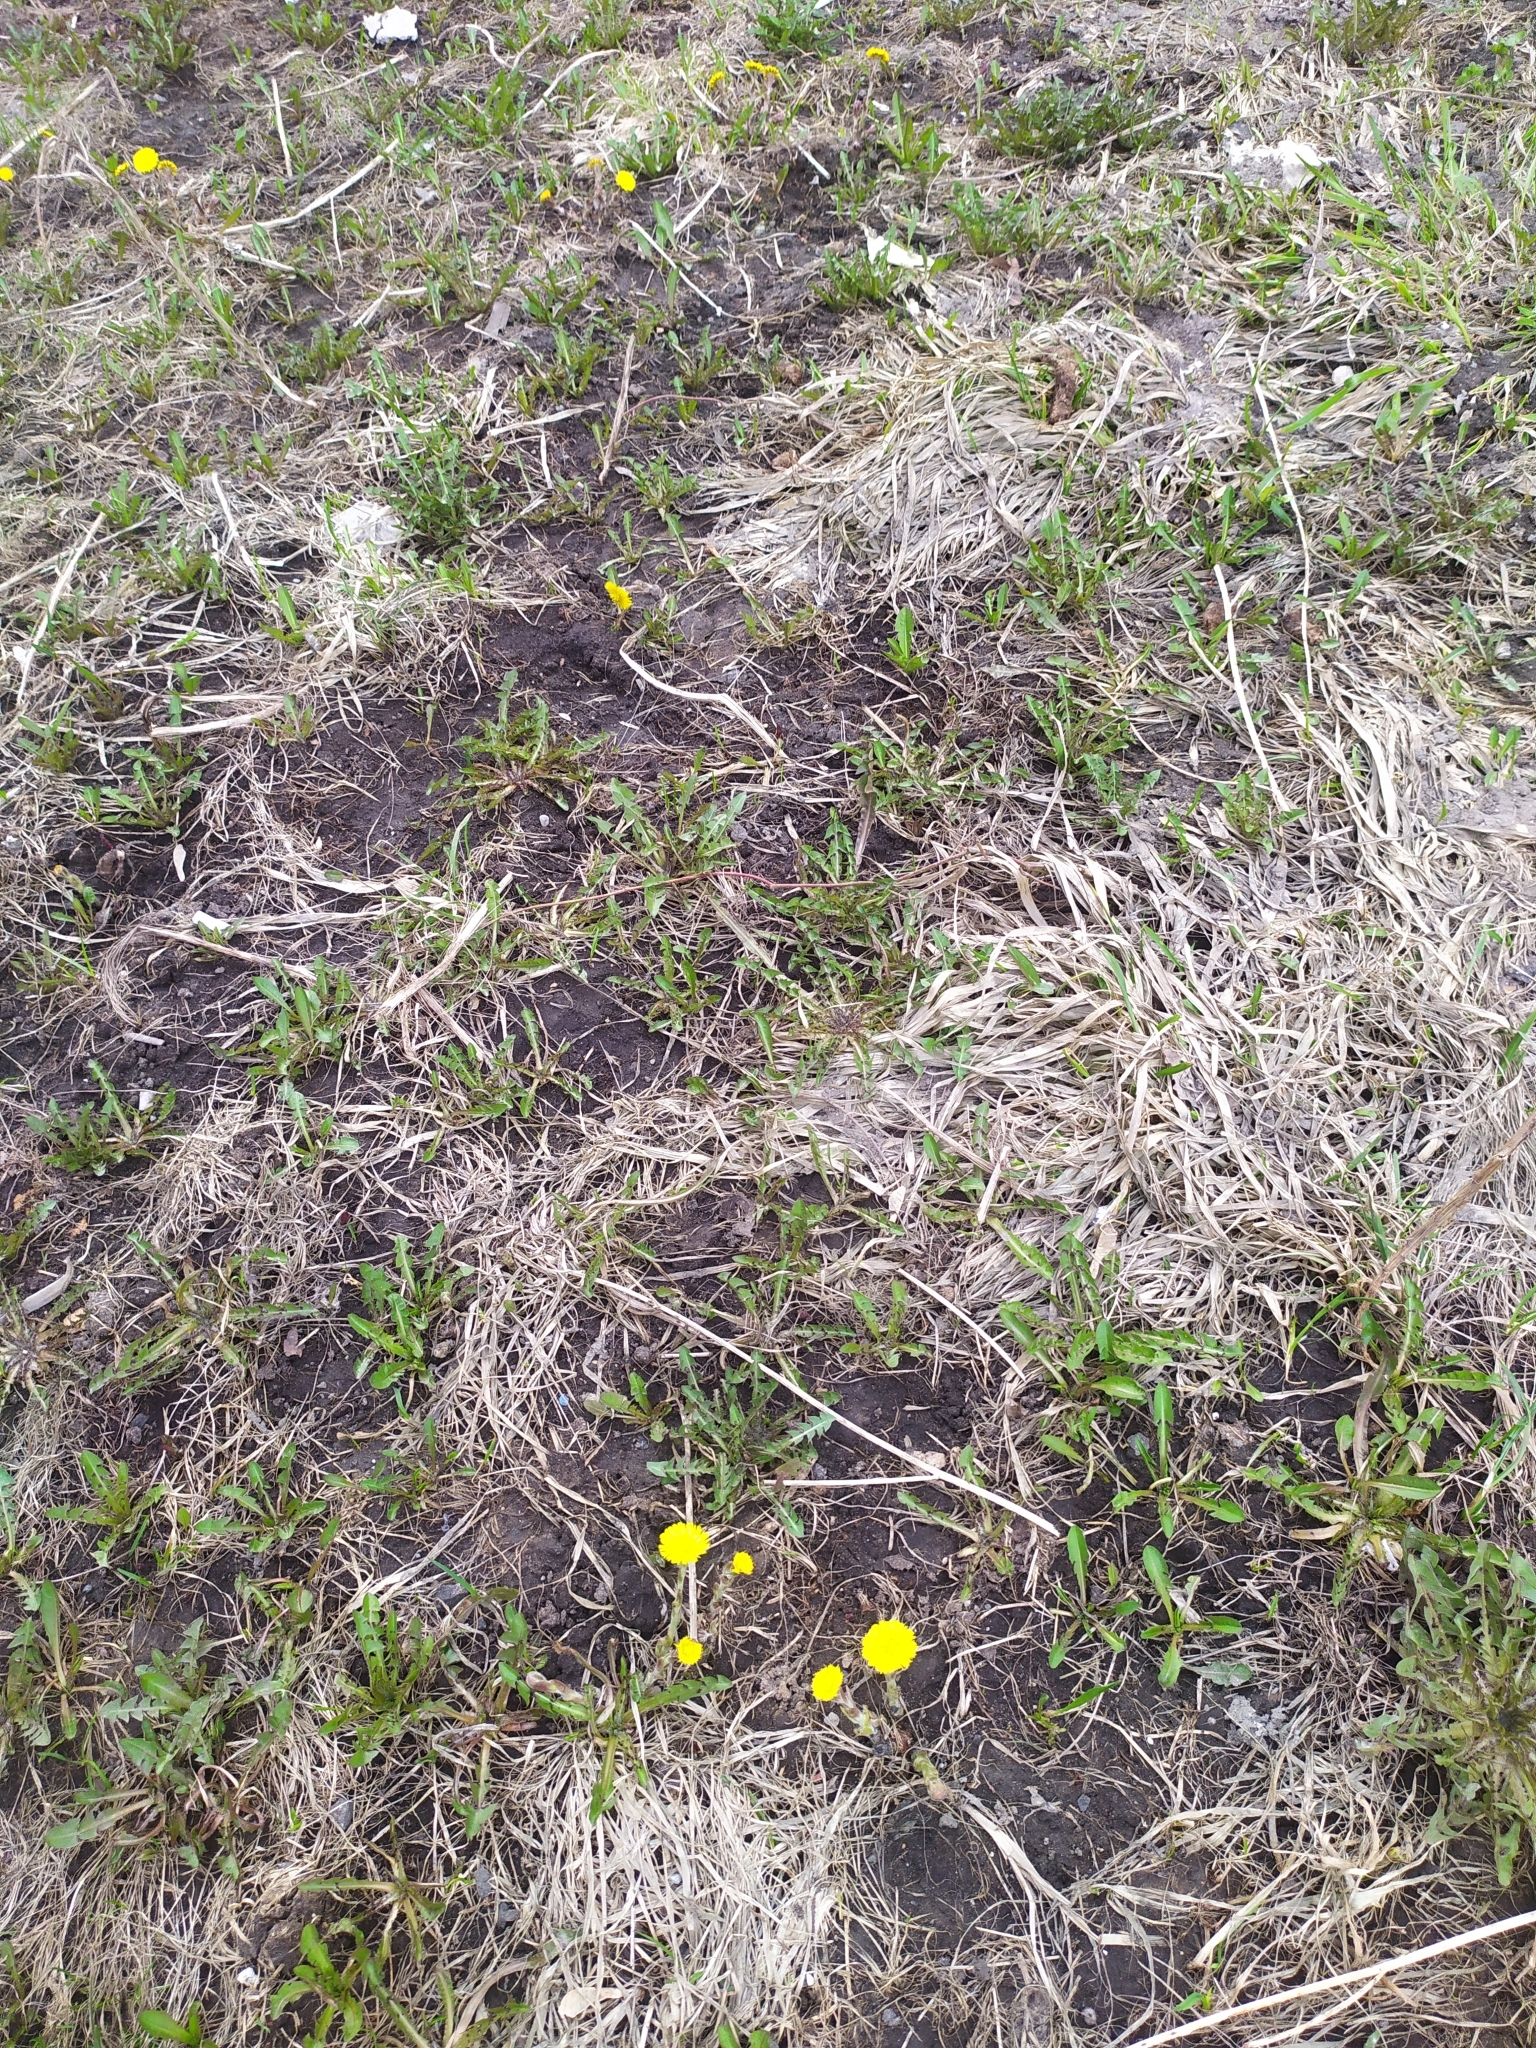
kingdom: Plantae
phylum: Tracheophyta
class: Magnoliopsida
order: Asterales
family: Asteraceae
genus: Tussilago
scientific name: Tussilago farfara
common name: Coltsfoot
